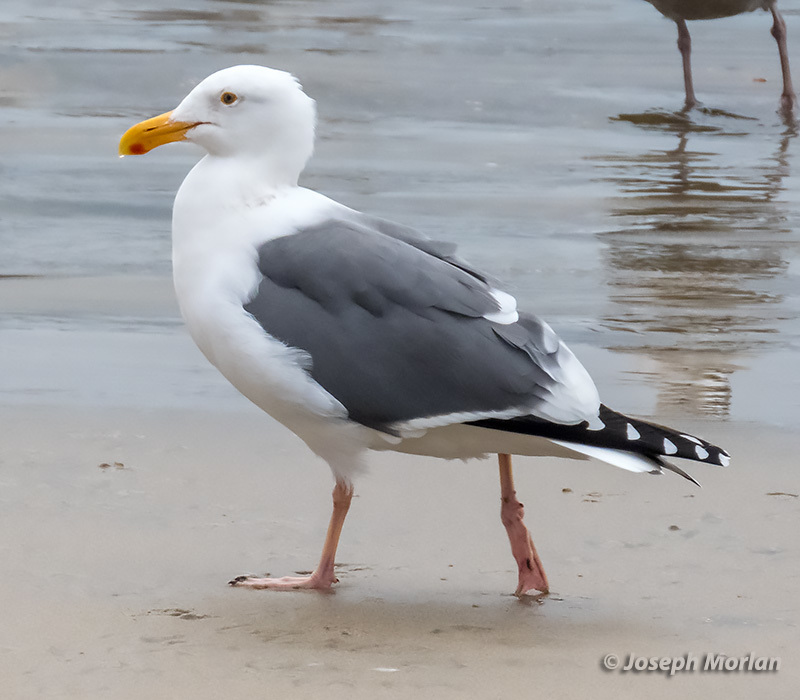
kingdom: Animalia
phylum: Chordata
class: Aves
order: Charadriiformes
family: Laridae
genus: Larus
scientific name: Larus occidentalis
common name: Western gull
